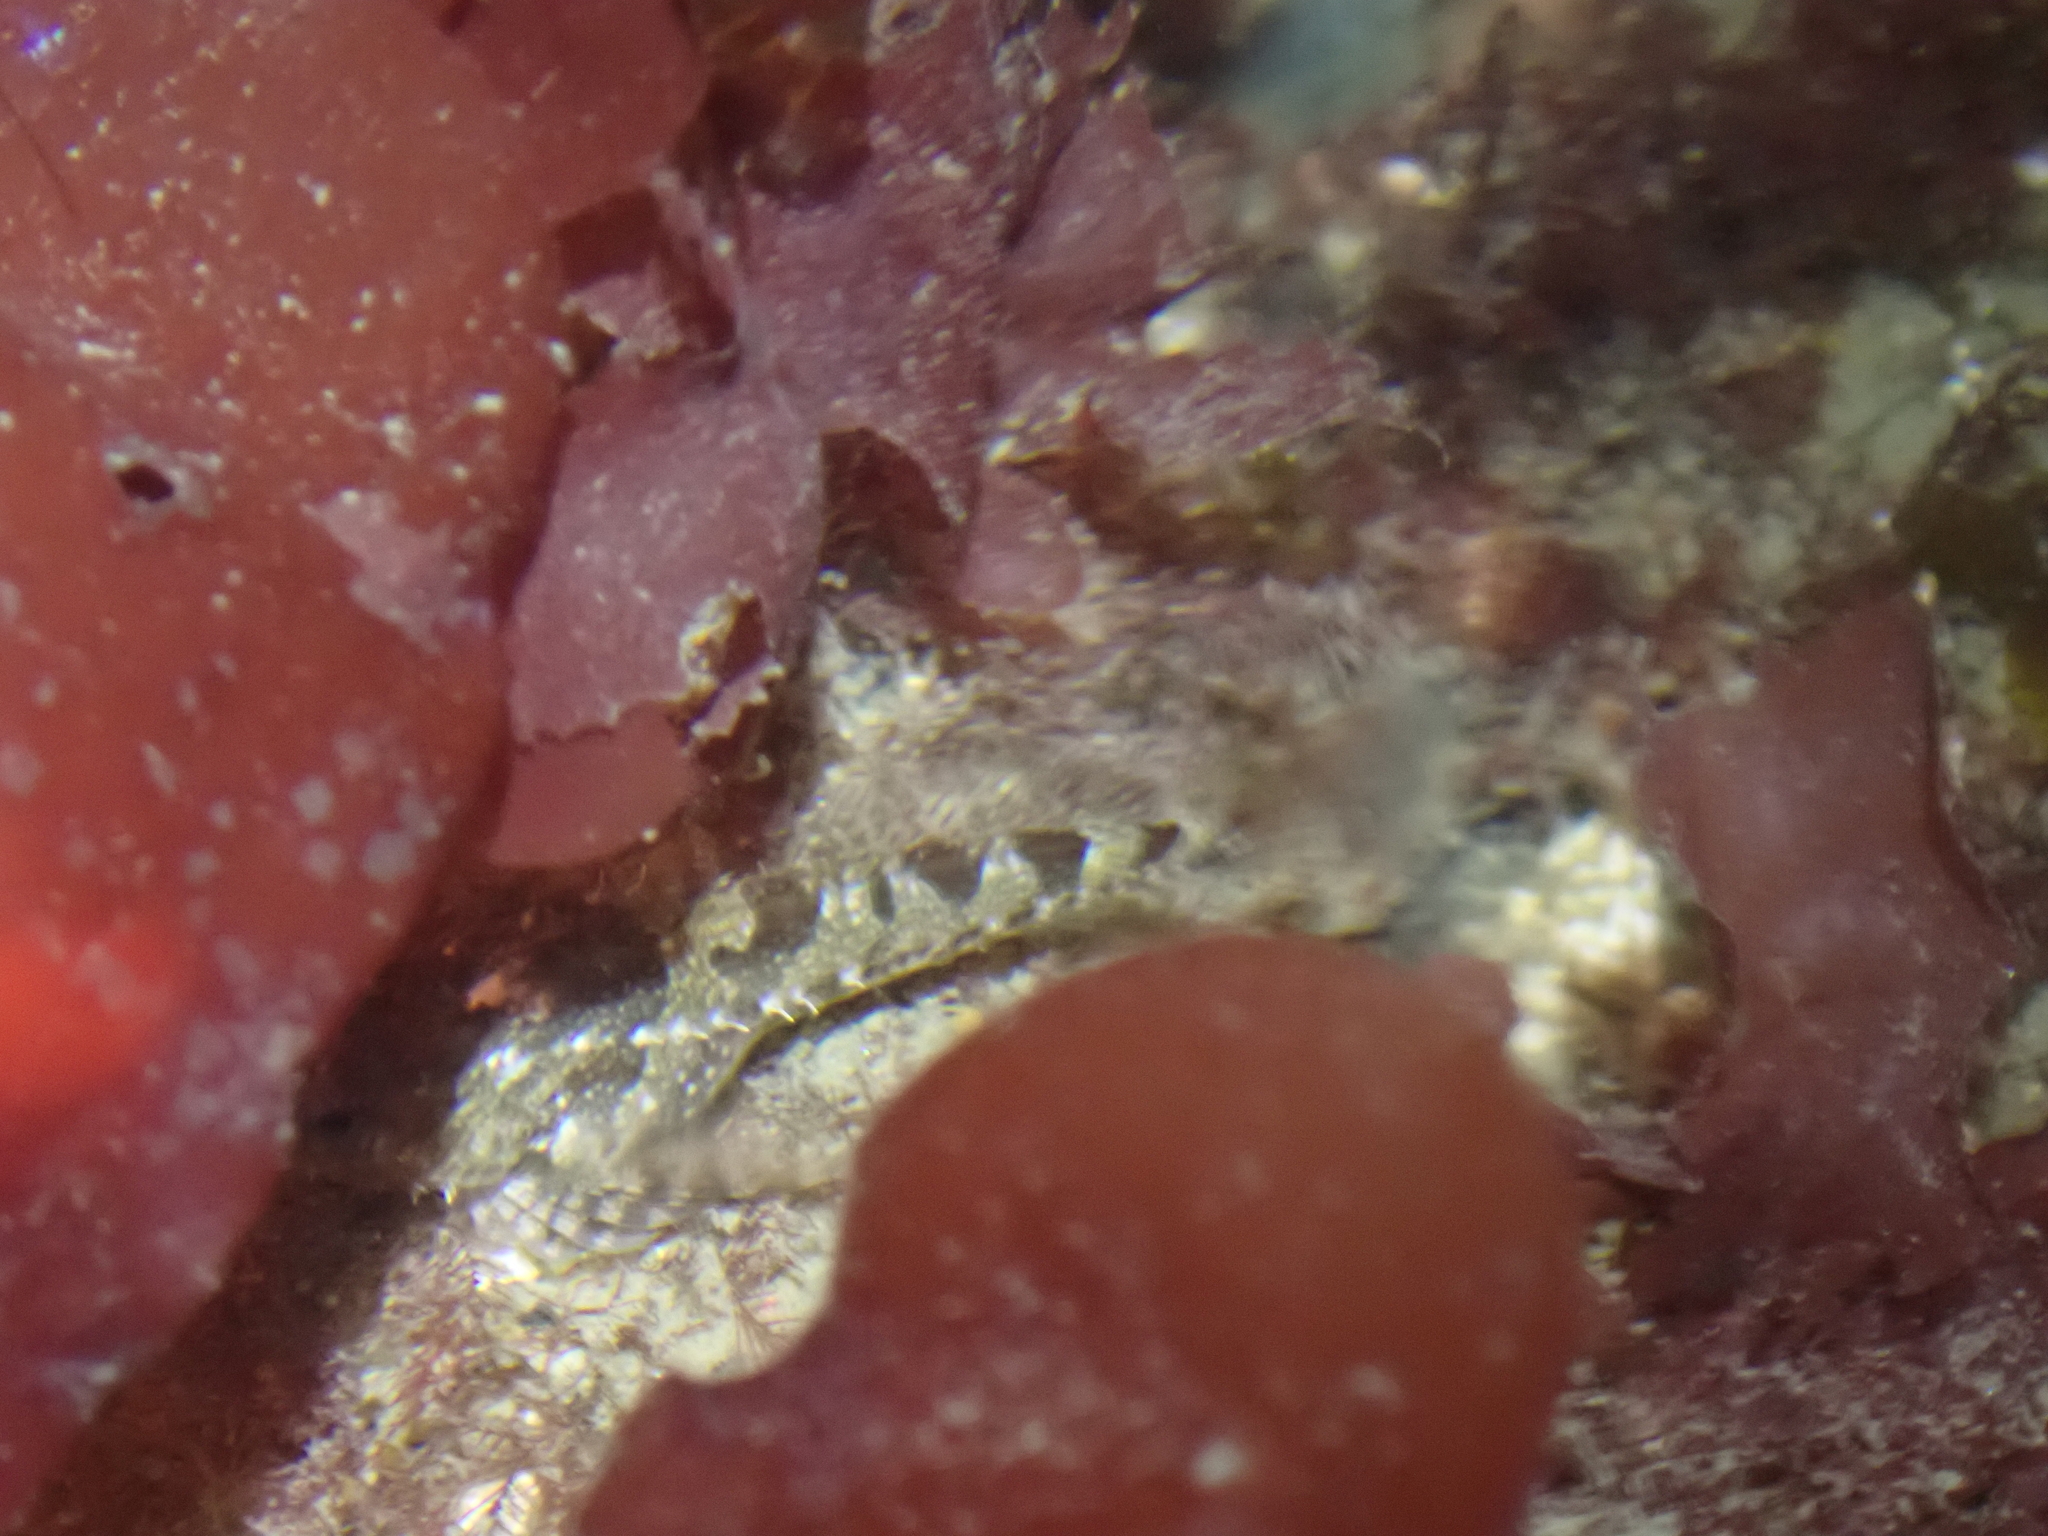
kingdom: Animalia
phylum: Chordata
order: Scorpaeniformes
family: Cottidae
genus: Oligocottus
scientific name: Oligocottus maculosus
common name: Tidepool sculpin
